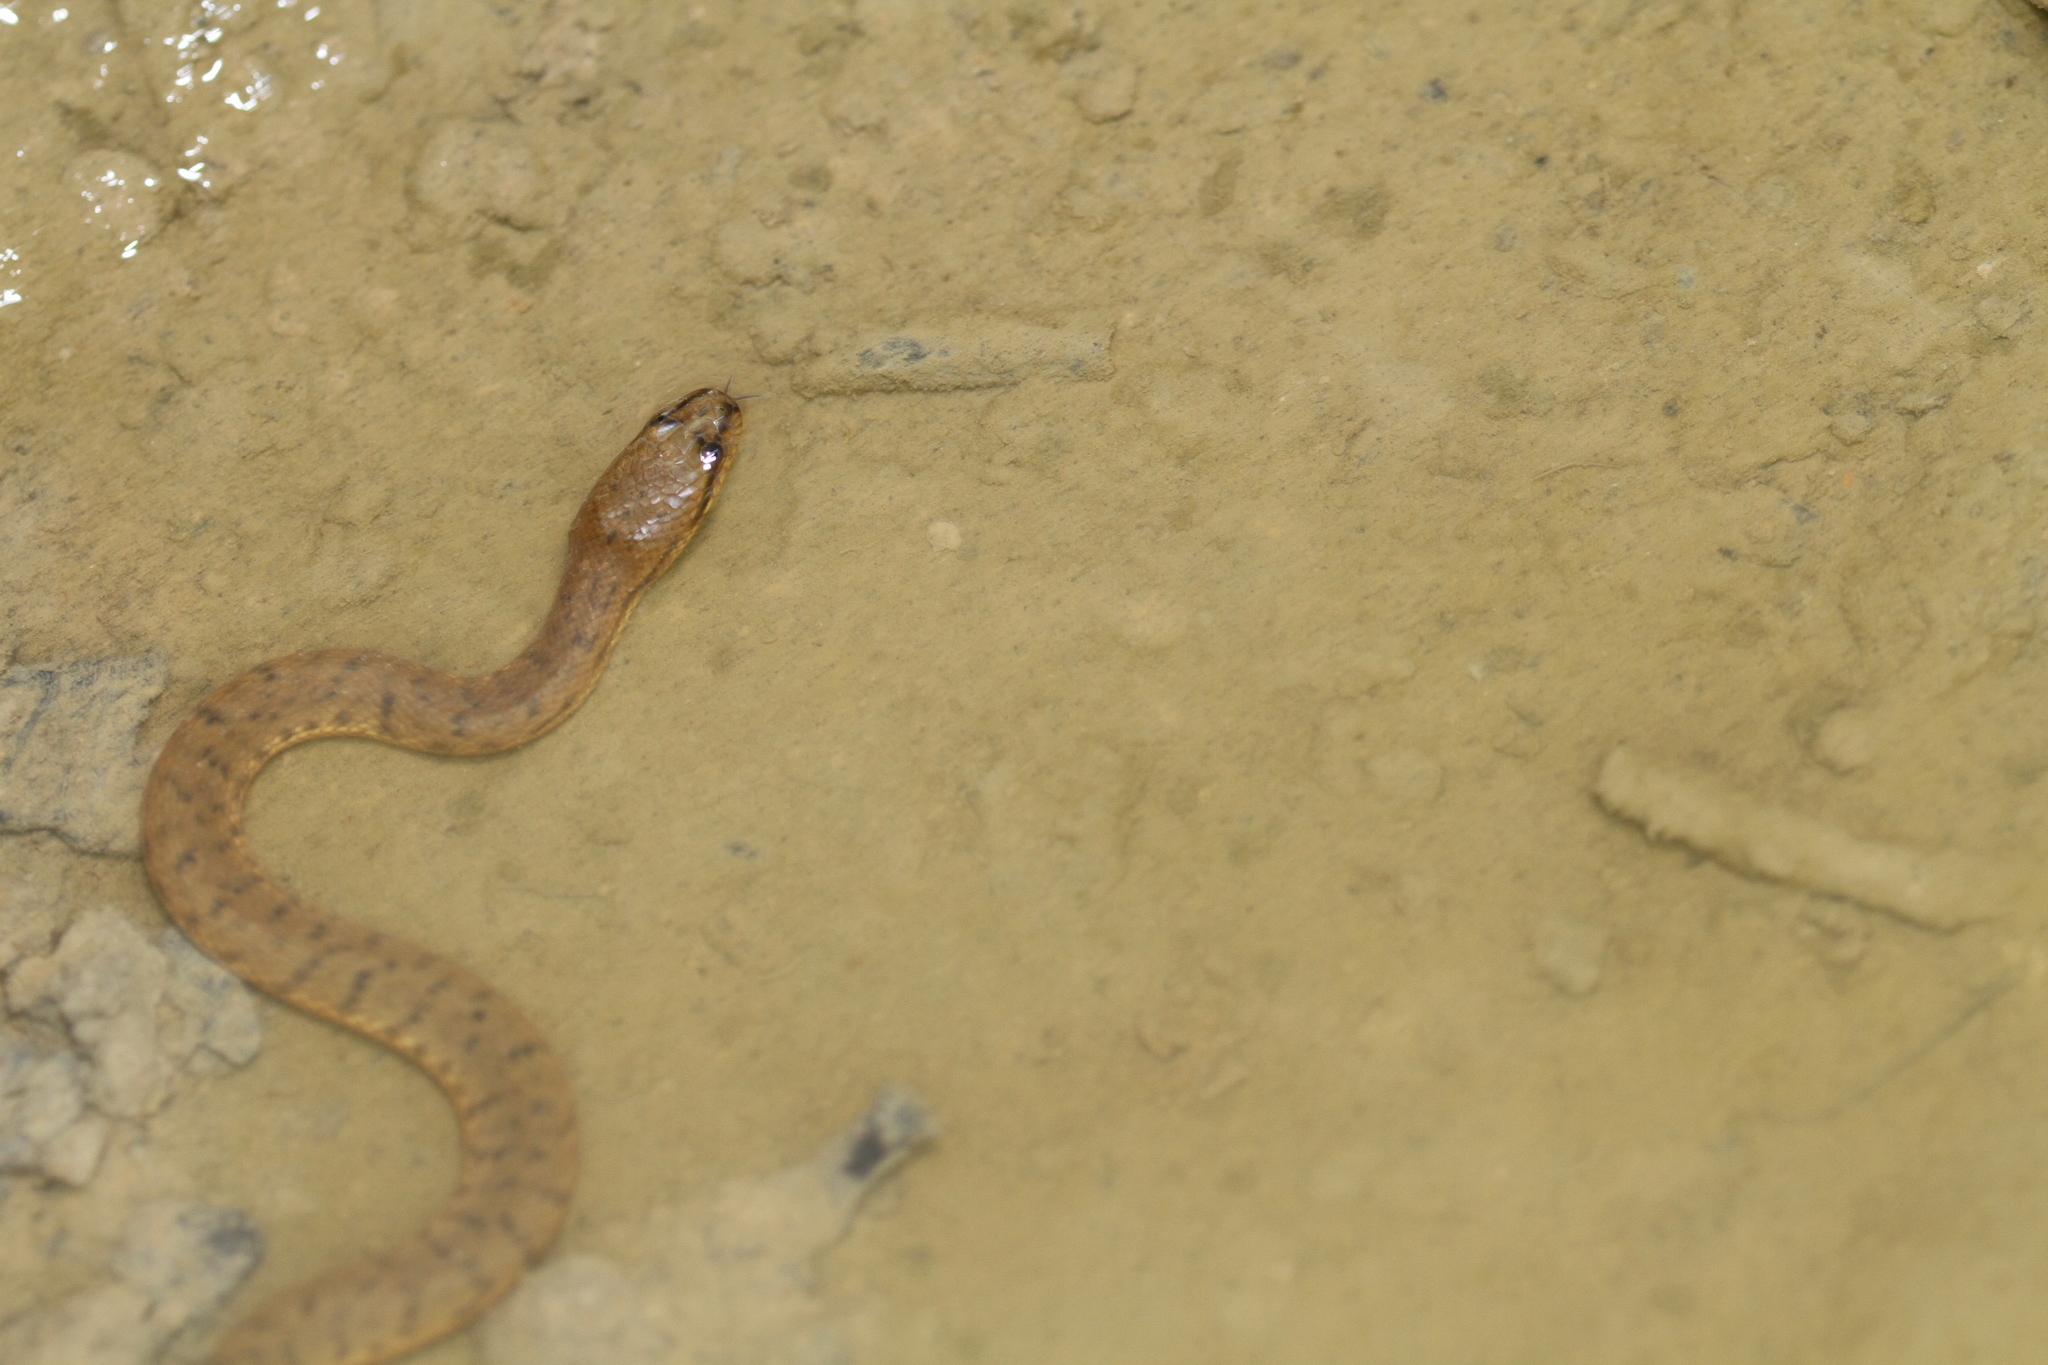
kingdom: Animalia
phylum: Chordata
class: Squamata
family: Homalopsidae
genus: Cerberus
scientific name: Cerberus schneiderii
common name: Southeast asian bockadam
